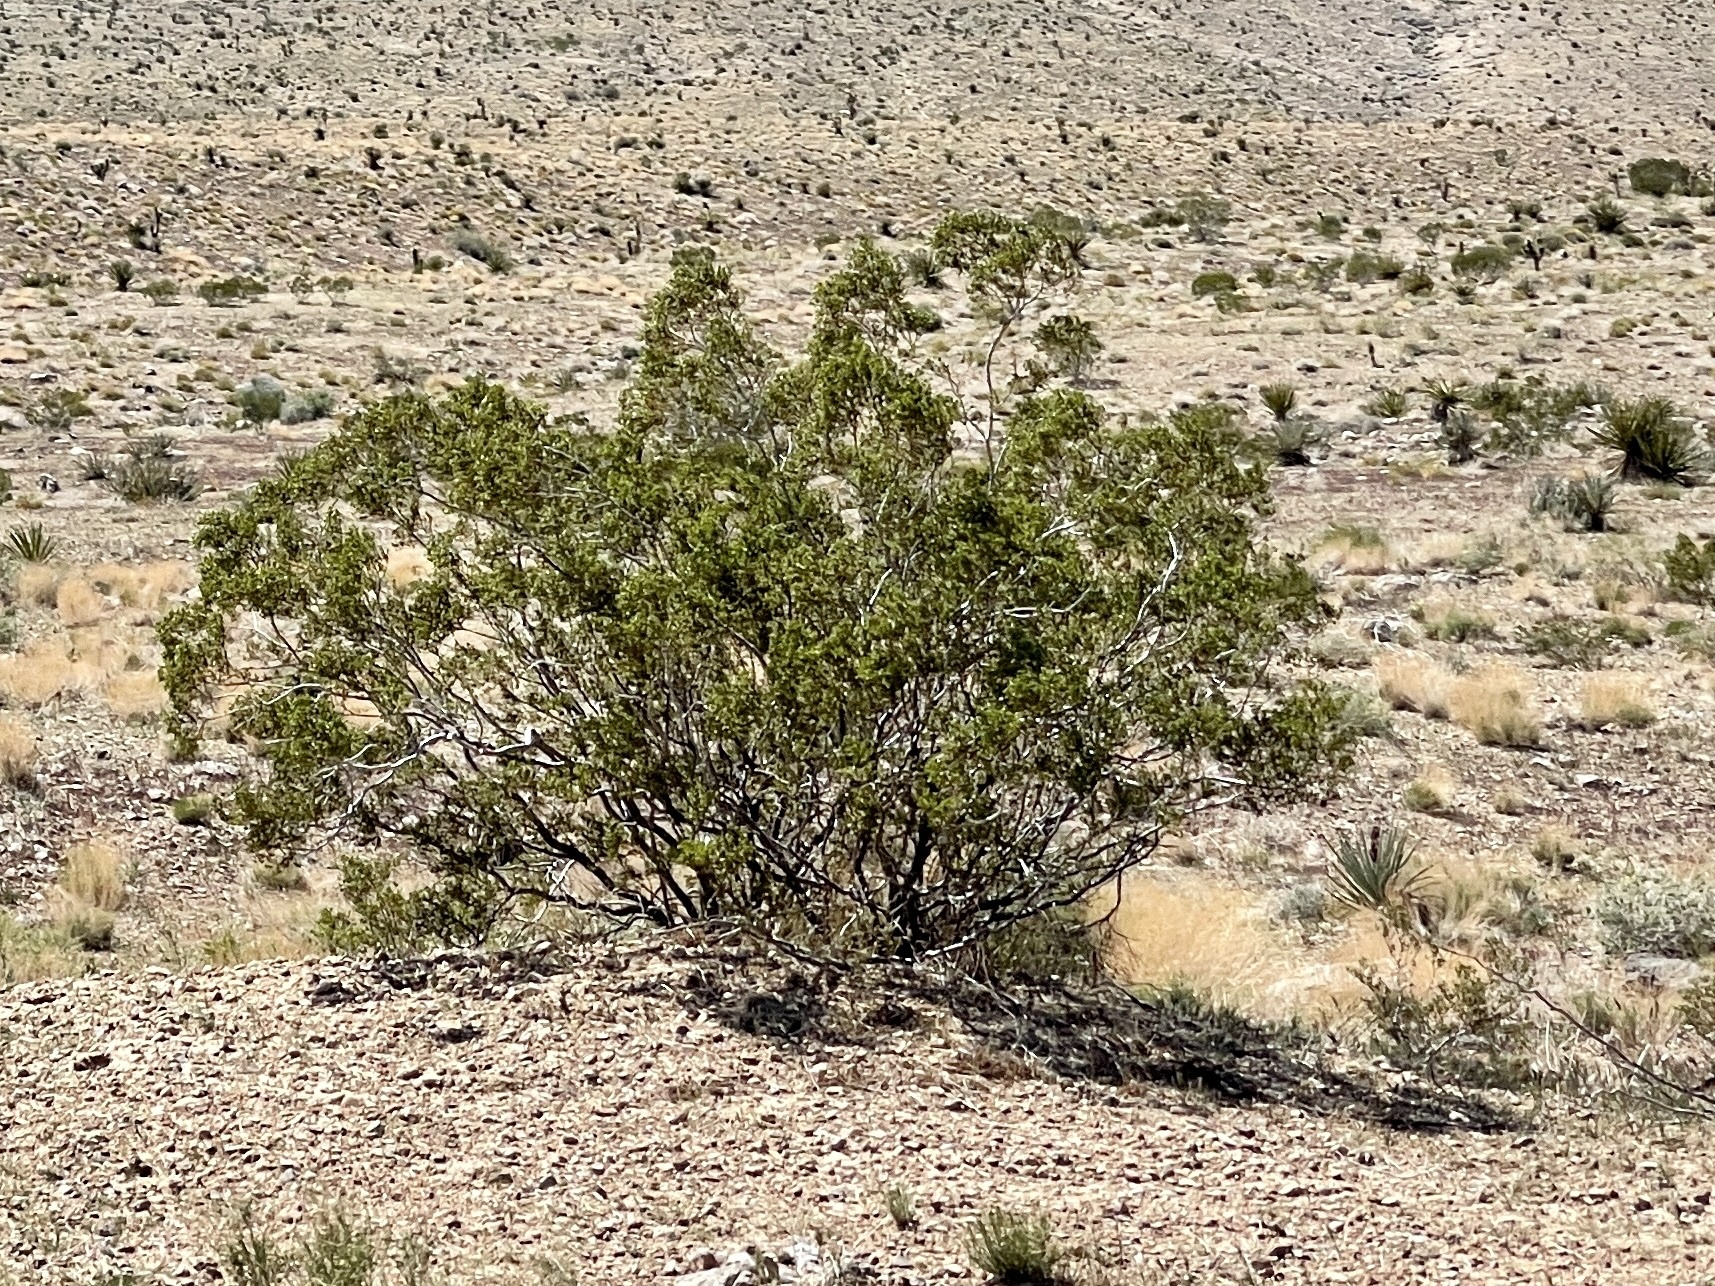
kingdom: Plantae
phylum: Tracheophyta
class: Magnoliopsida
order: Zygophyllales
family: Zygophyllaceae
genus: Larrea
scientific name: Larrea tridentata
